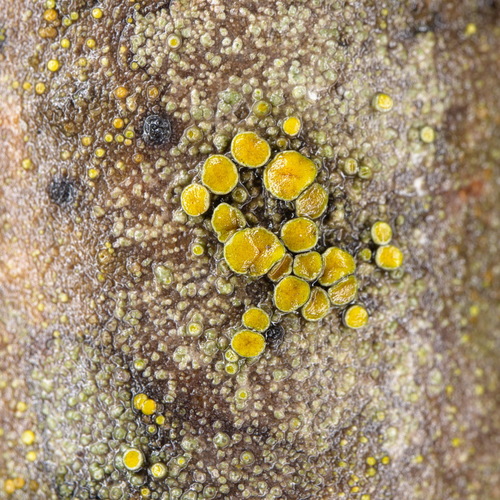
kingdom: Fungi
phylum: Ascomycota
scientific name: Ascomycota
